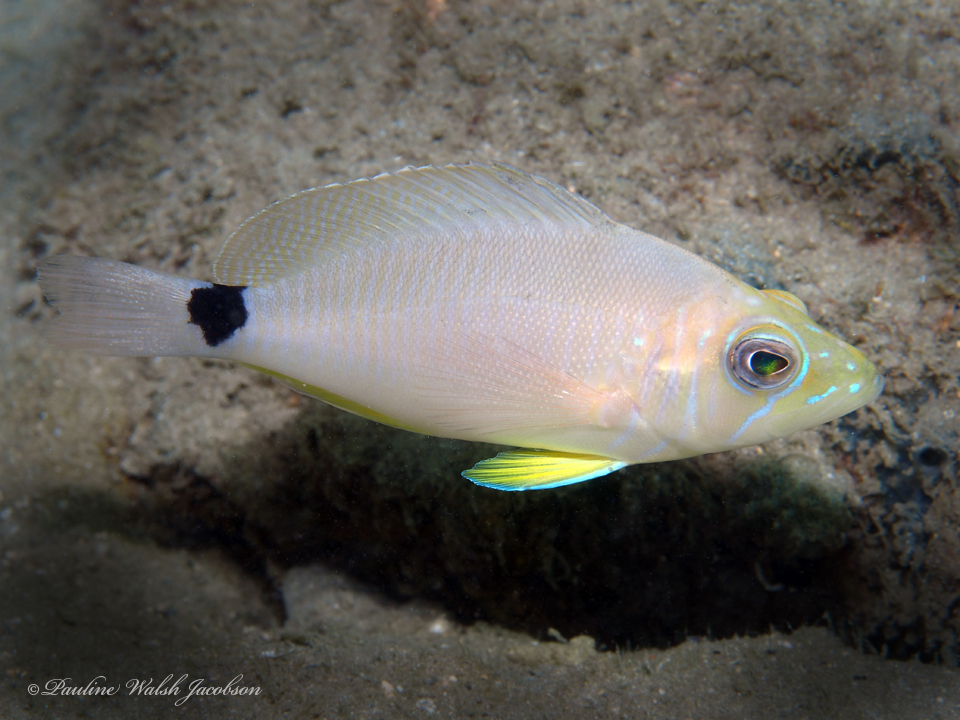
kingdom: Animalia
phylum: Chordata
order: Perciformes
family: Serranidae
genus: Hypoplectrus
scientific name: Hypoplectrus unicolor
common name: Butter hamlet
